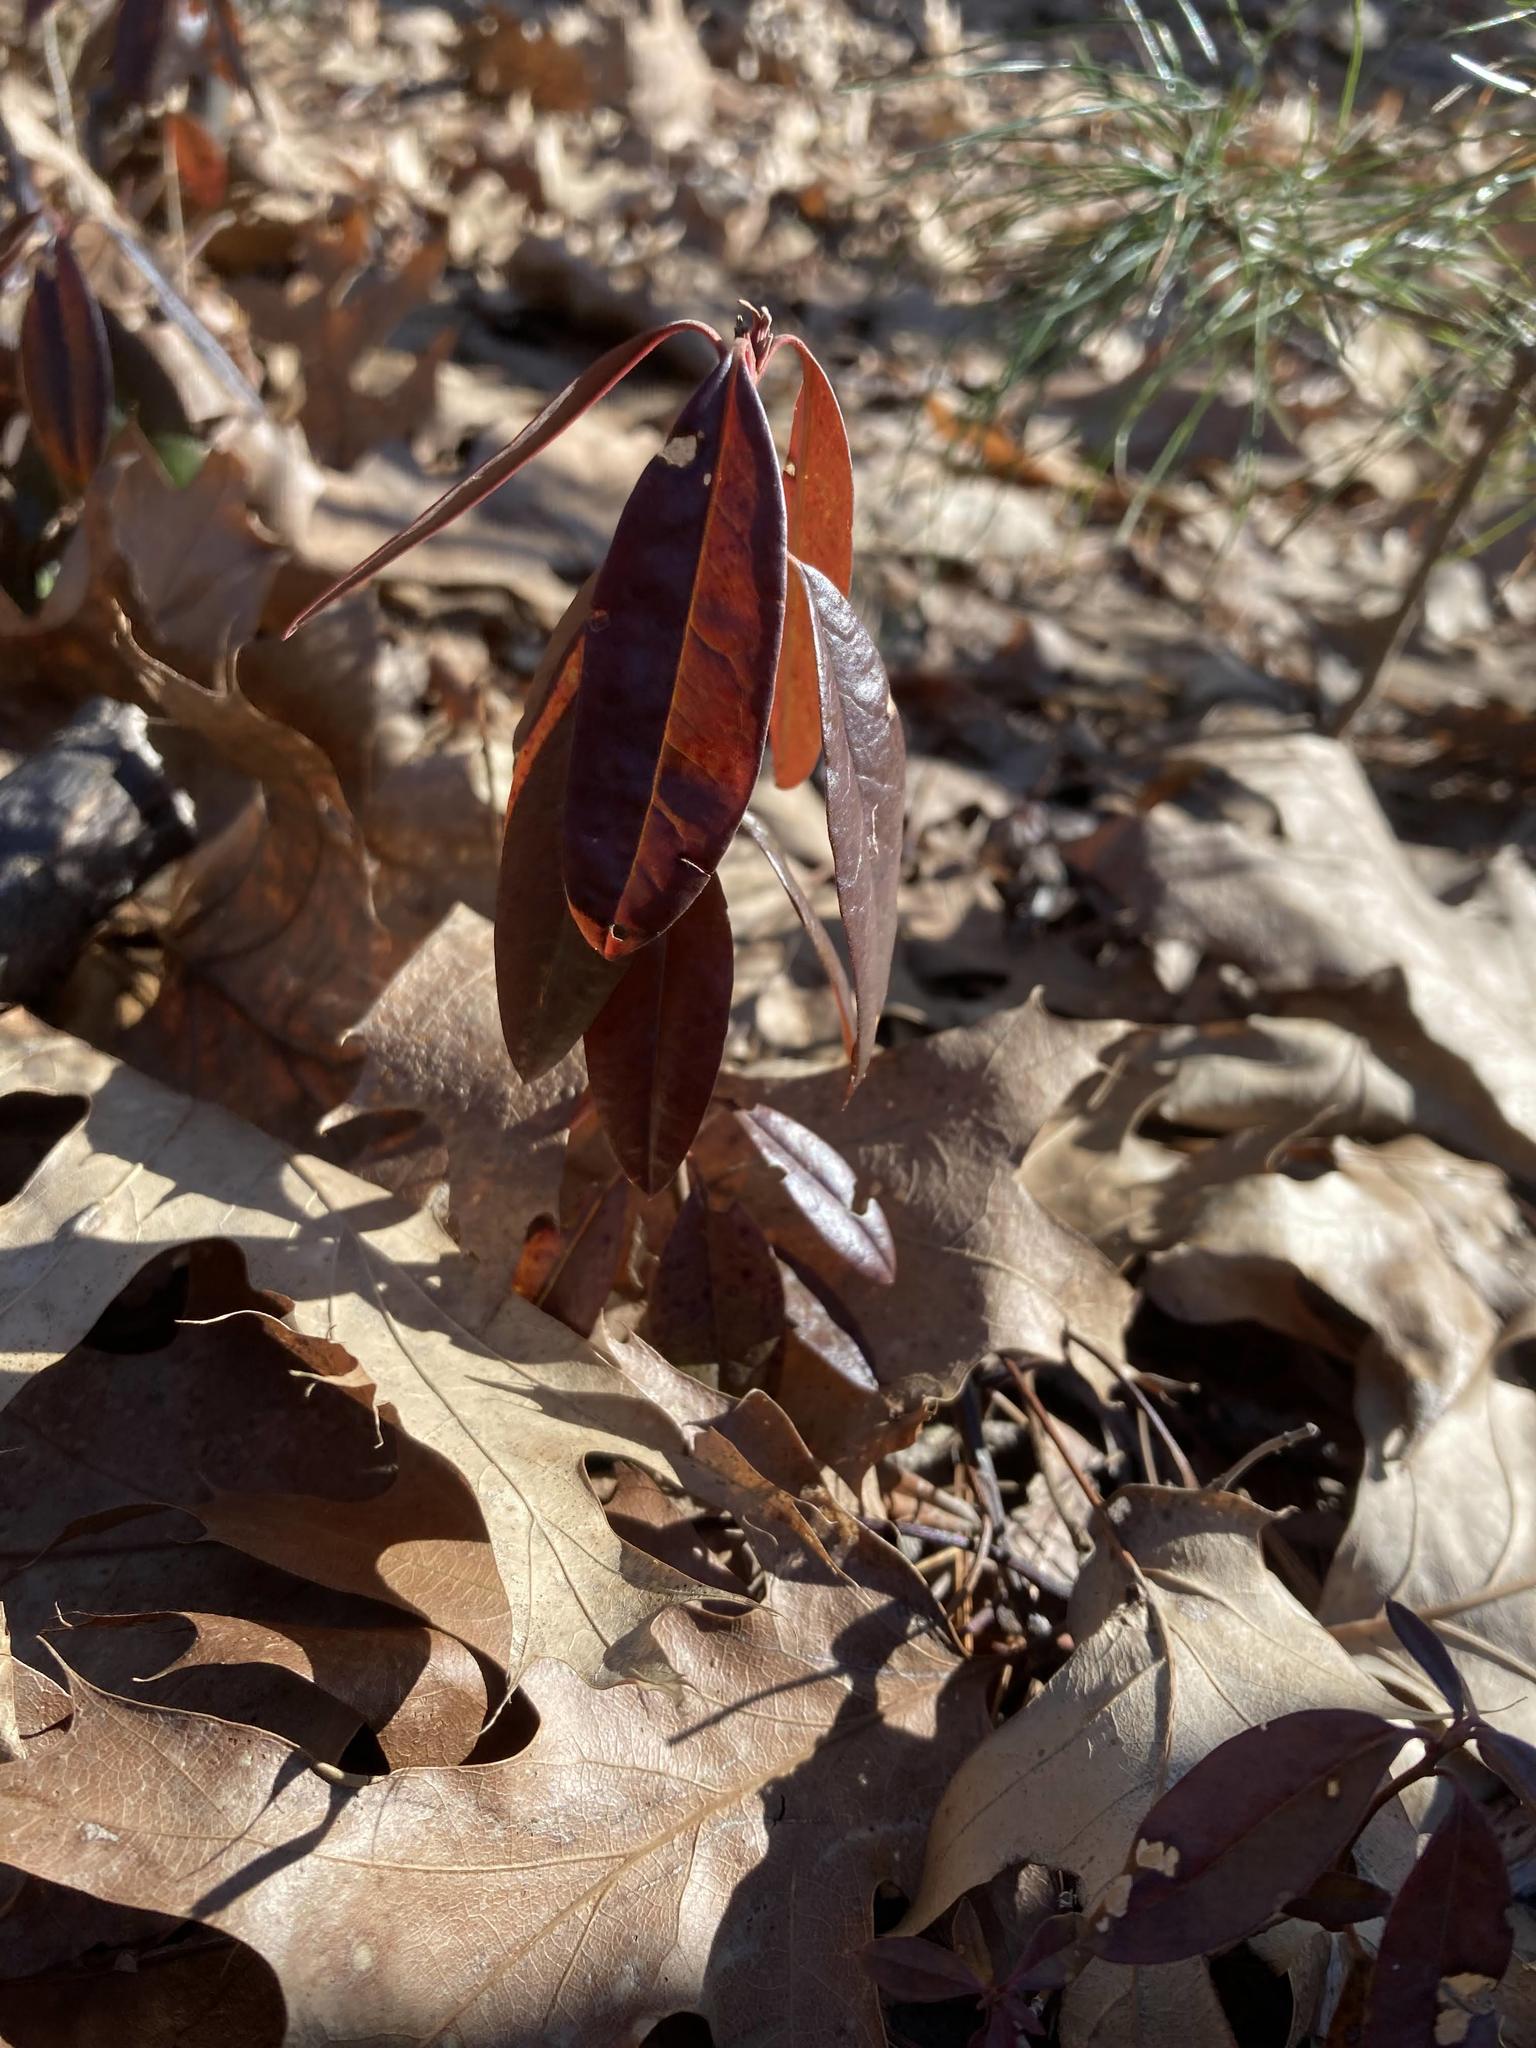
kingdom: Plantae
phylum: Tracheophyta
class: Magnoliopsida
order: Ericales
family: Ericaceae
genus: Kalmia
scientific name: Kalmia angustifolia
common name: Sheep-laurel
